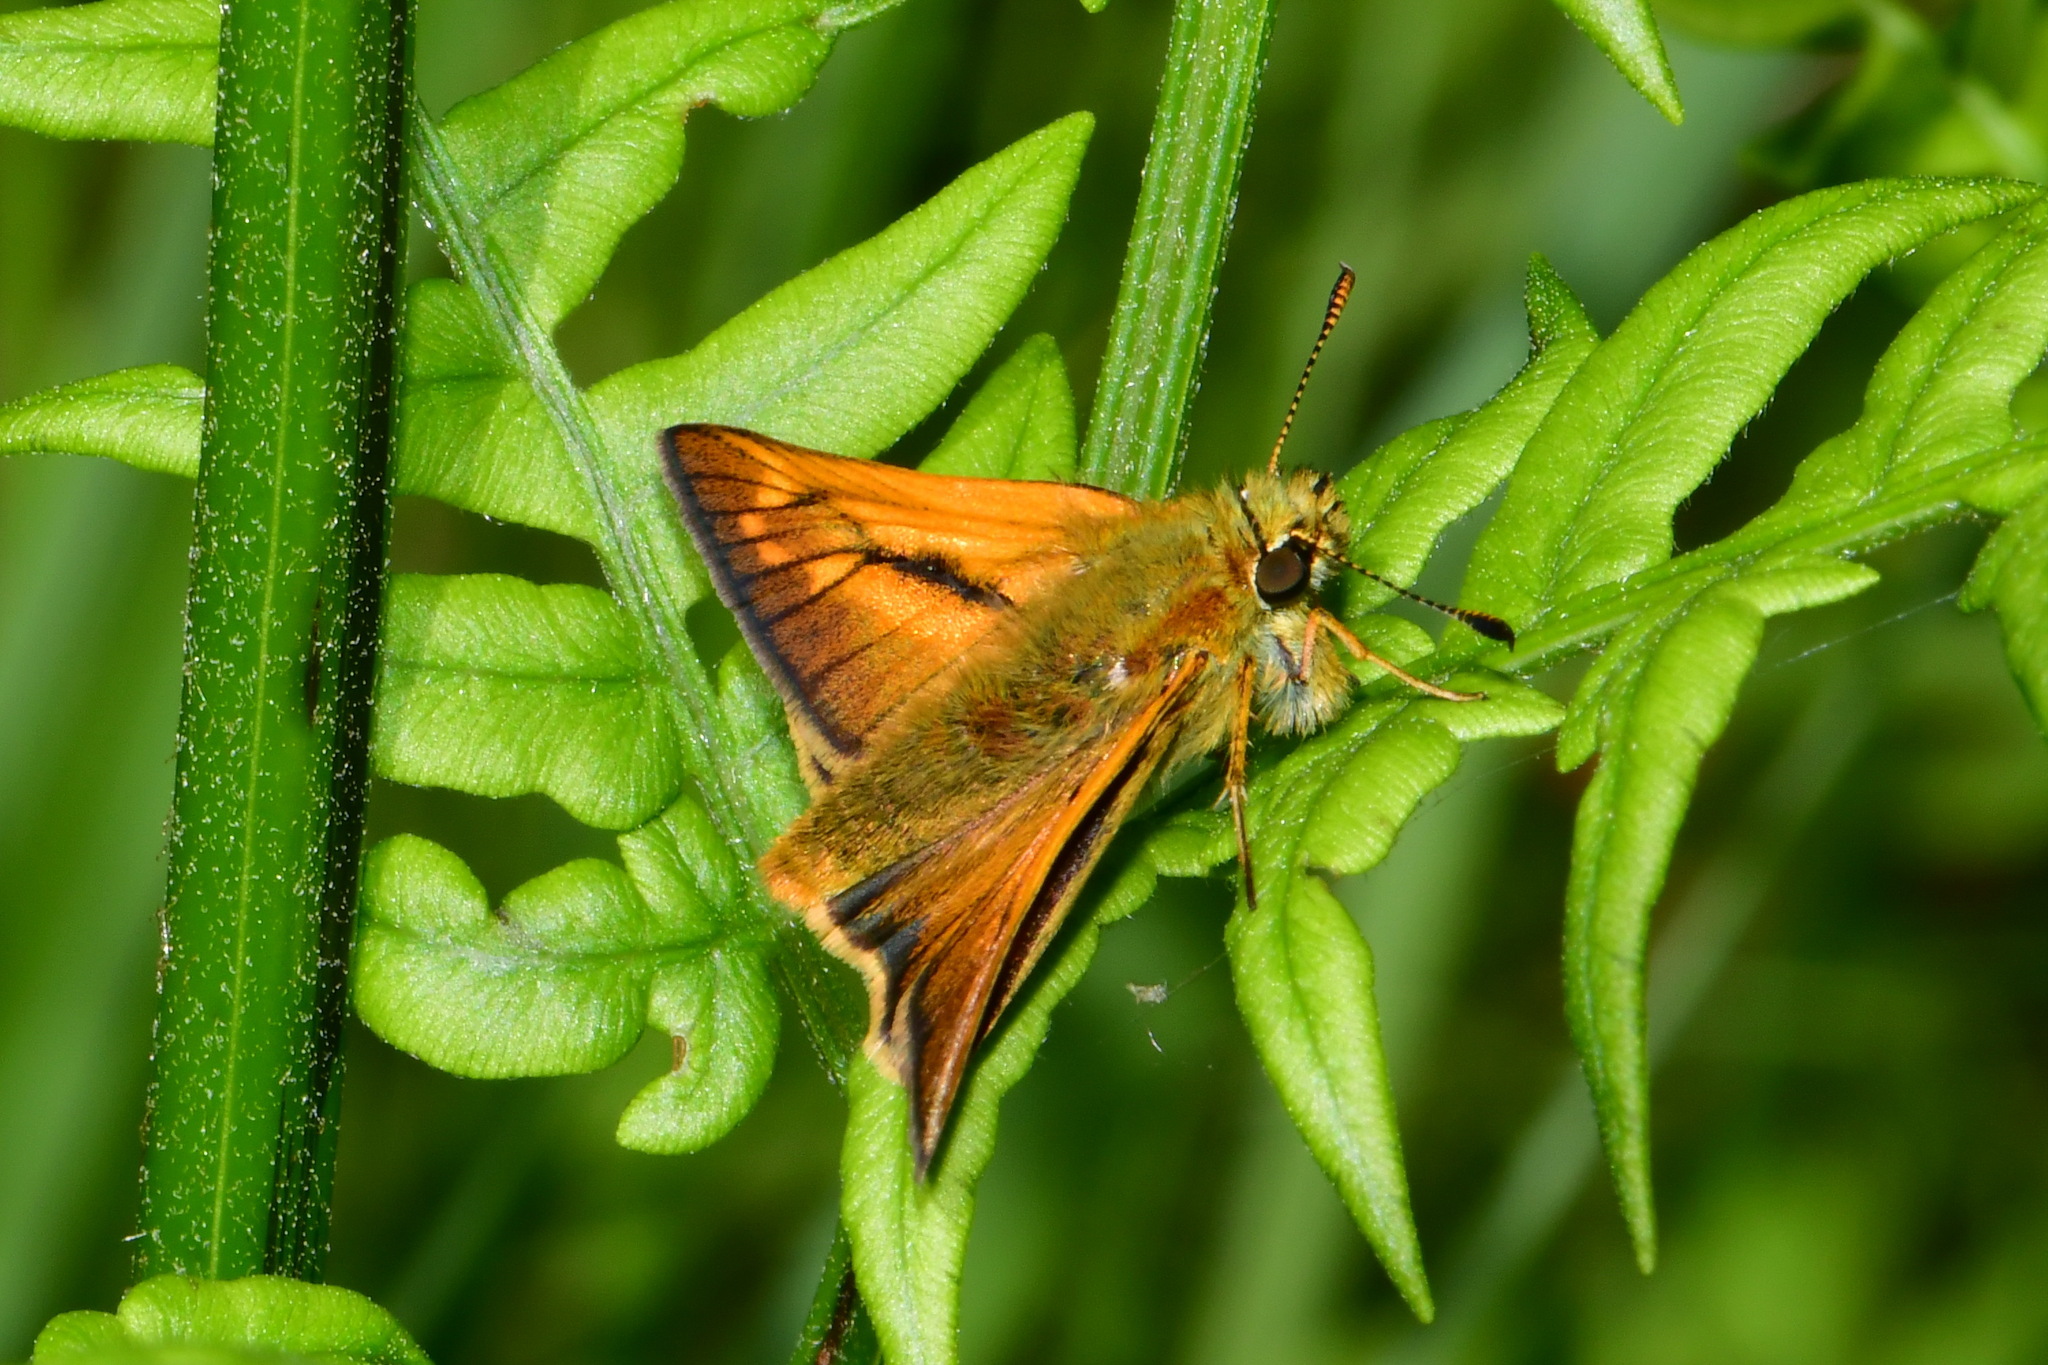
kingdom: Animalia
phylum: Arthropoda
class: Insecta
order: Lepidoptera
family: Hesperiidae
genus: Ochlodes
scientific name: Ochlodes venata
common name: Large skipper
